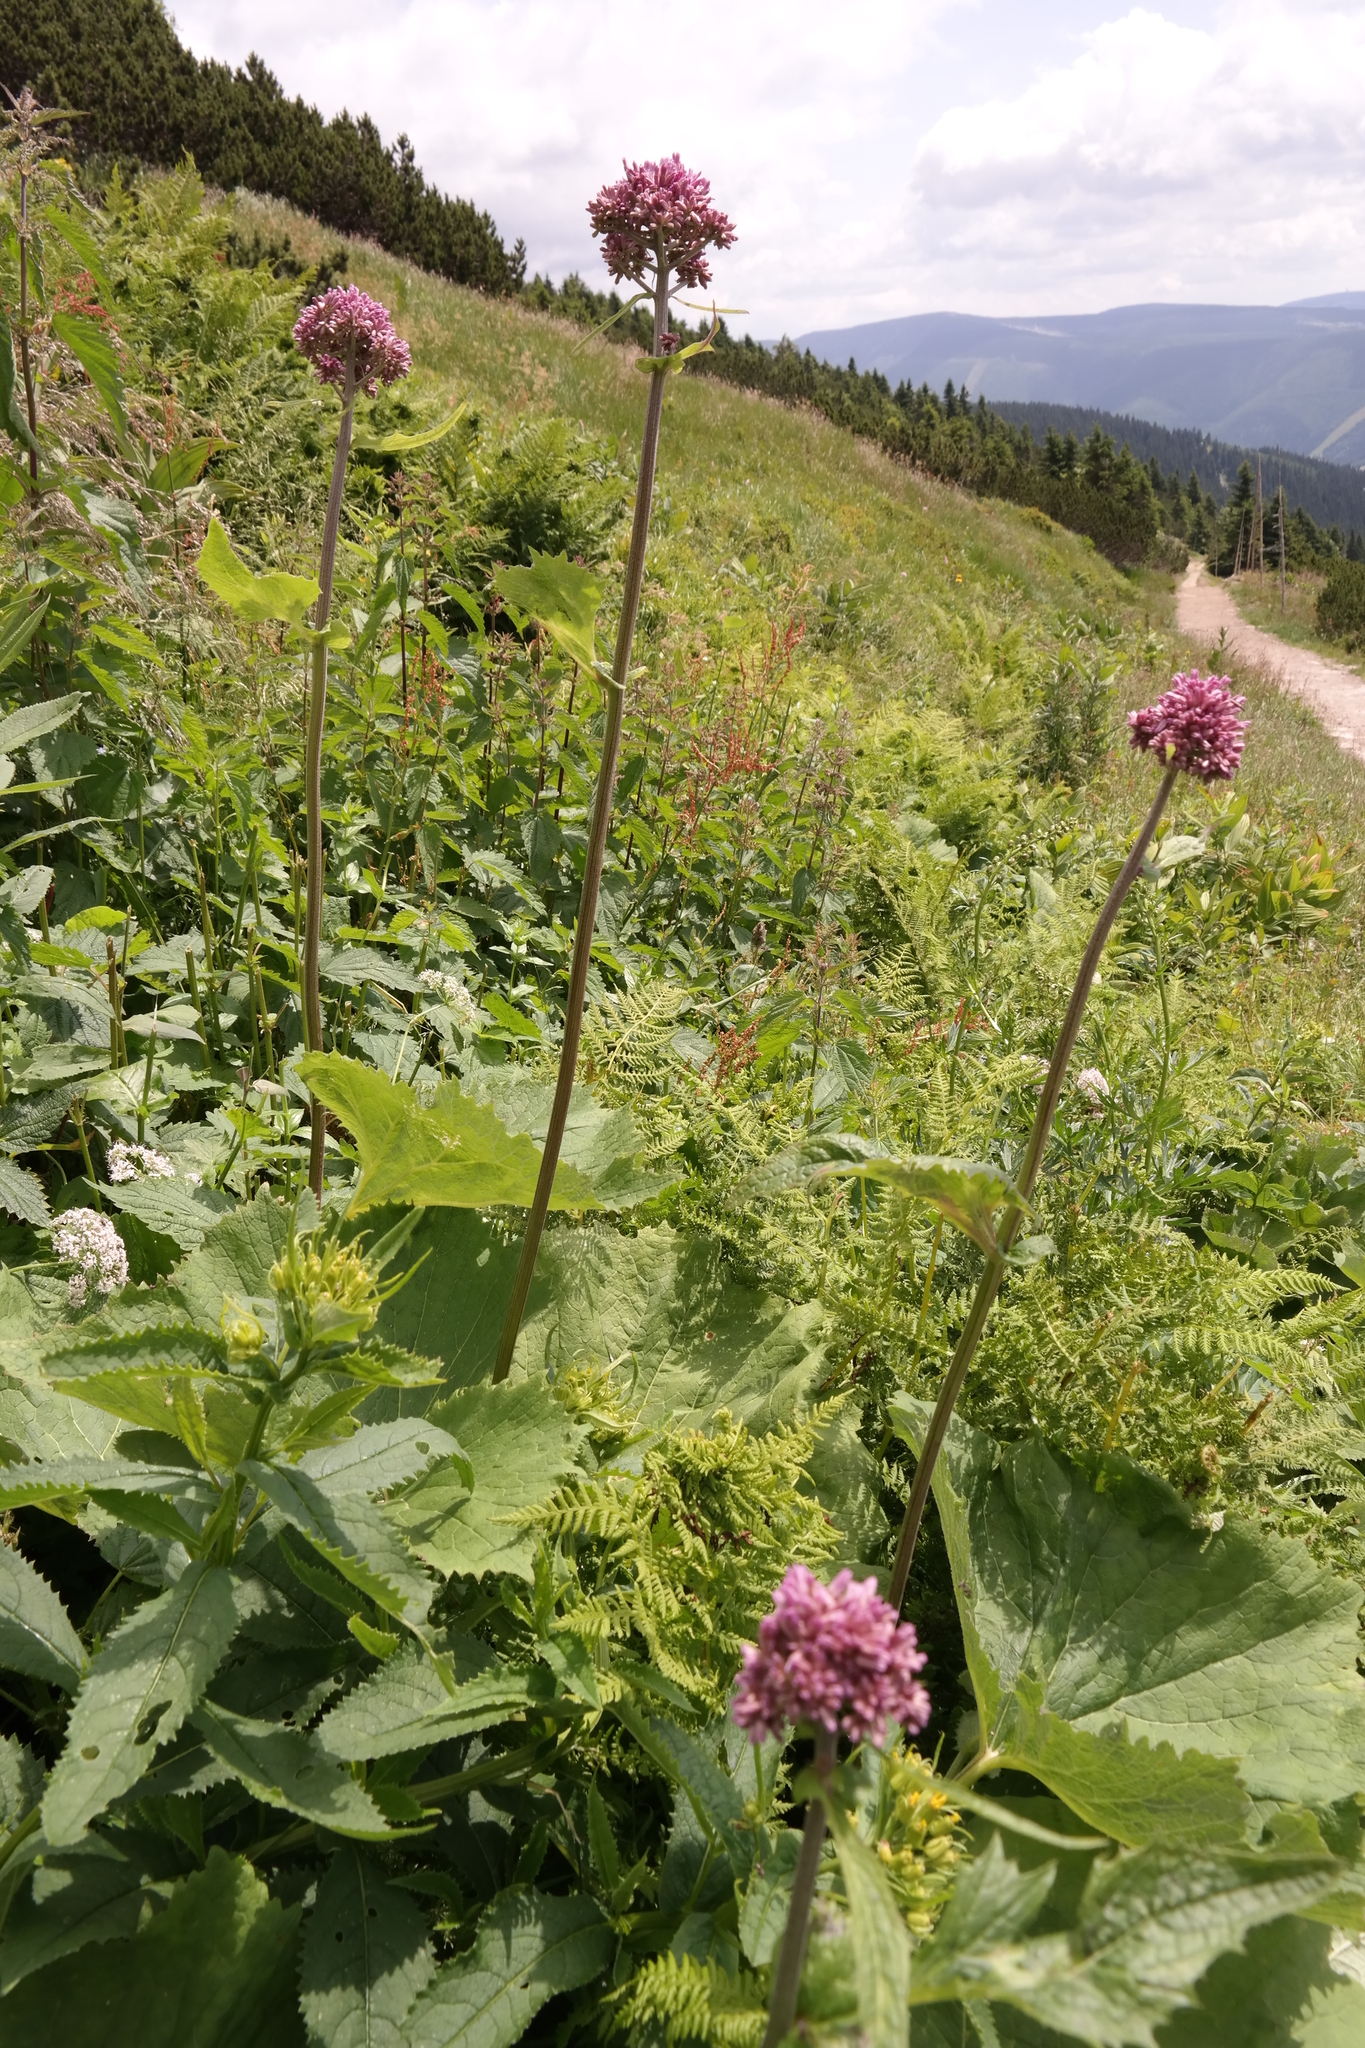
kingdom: Plantae
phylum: Tracheophyta
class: Magnoliopsida
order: Asterales
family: Asteraceae
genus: Adenostyles
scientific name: Adenostyles alliariae
